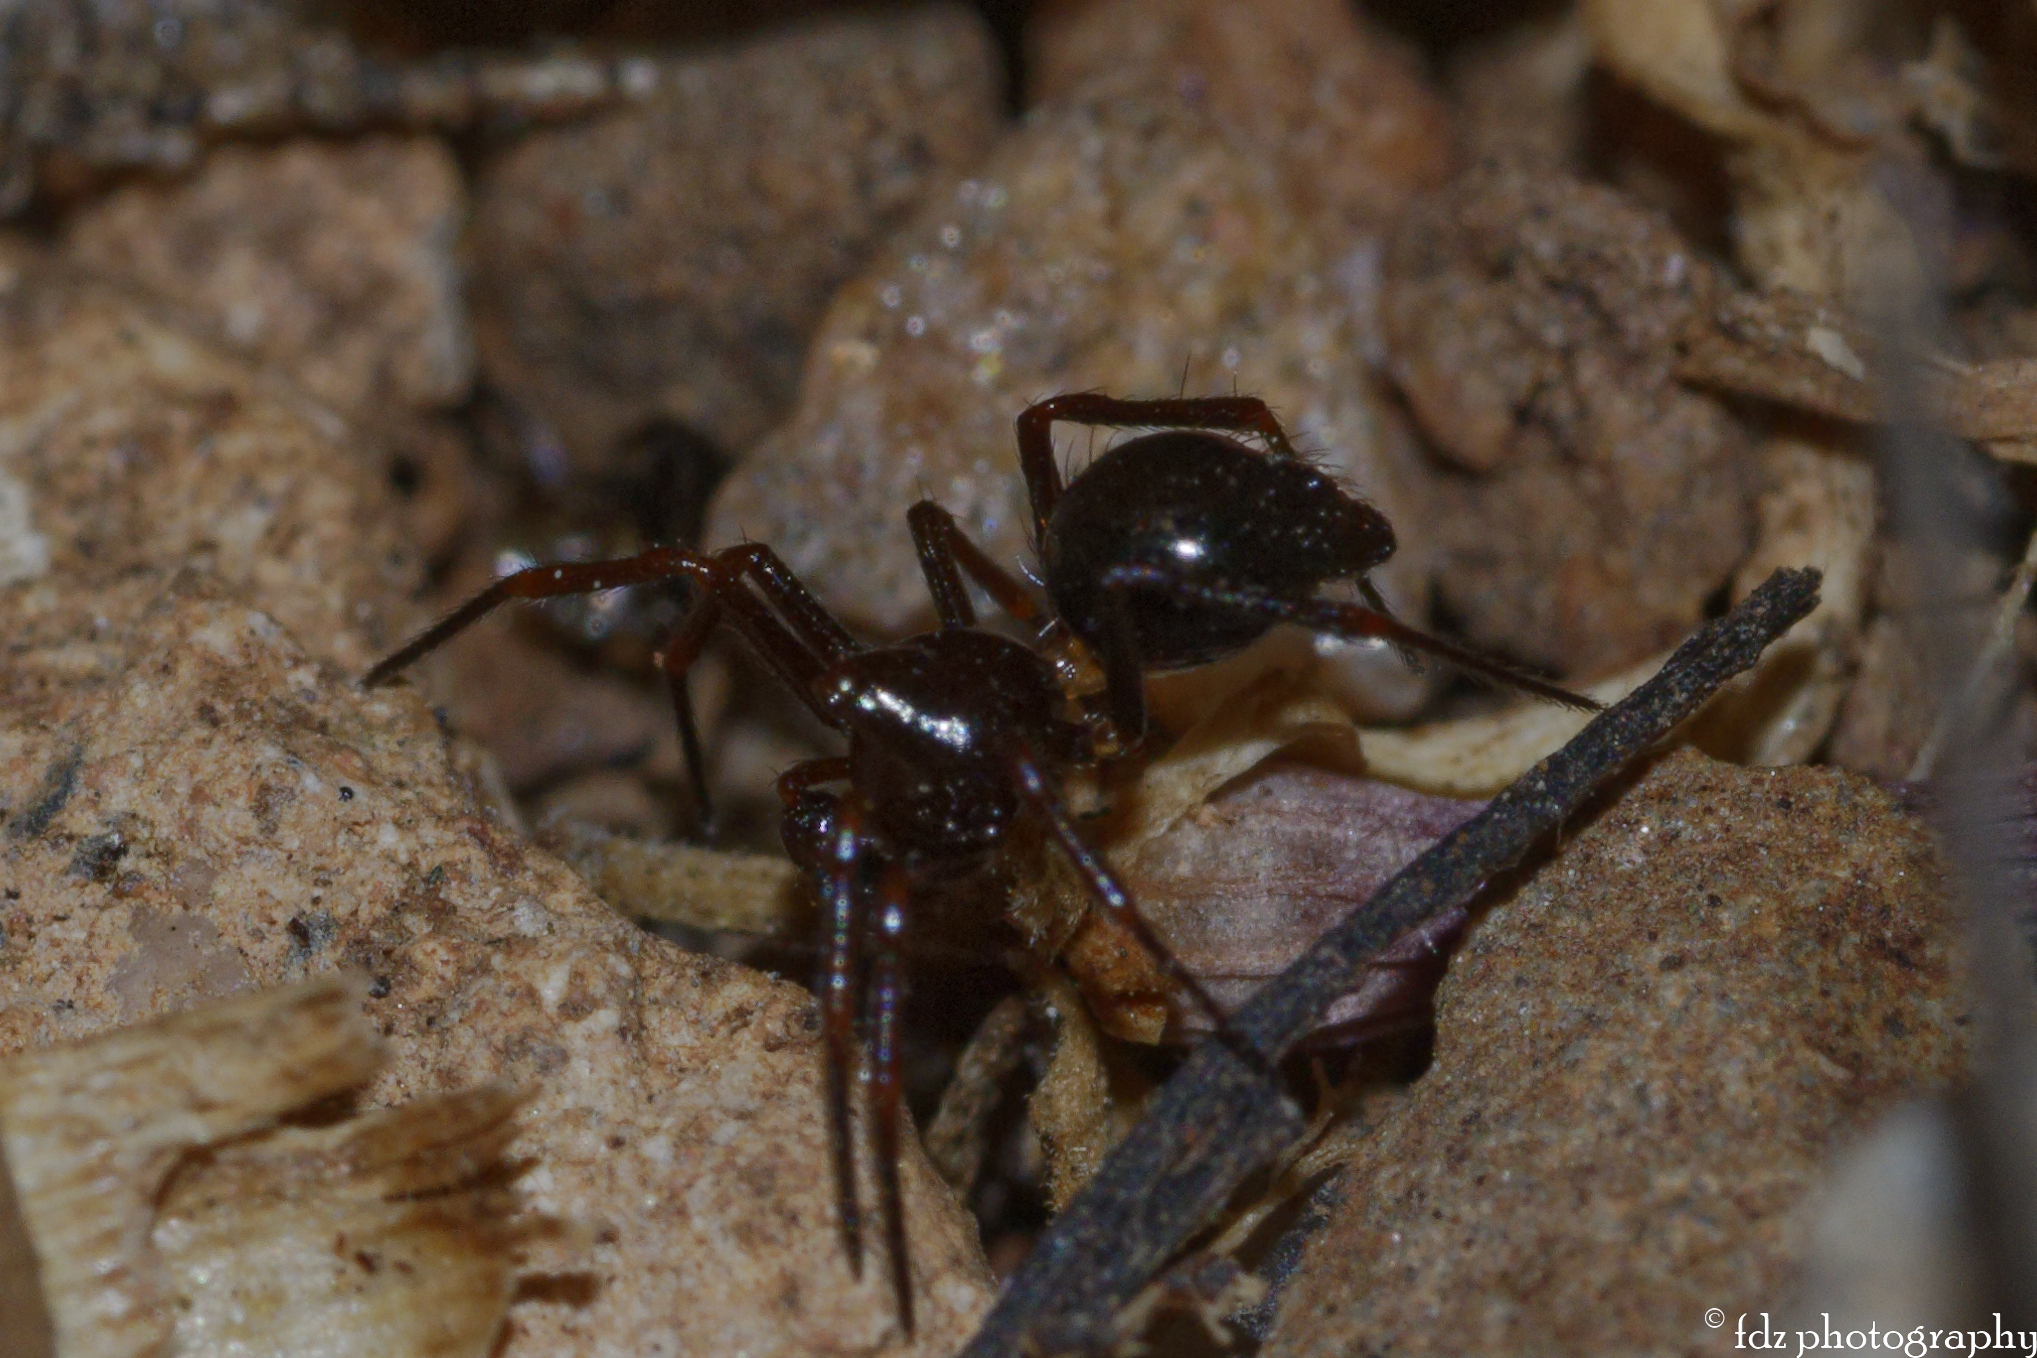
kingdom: Animalia
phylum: Arthropoda
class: Arachnida
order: Araneae
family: Theridiidae
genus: Euryopis
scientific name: Euryopis episinoides
